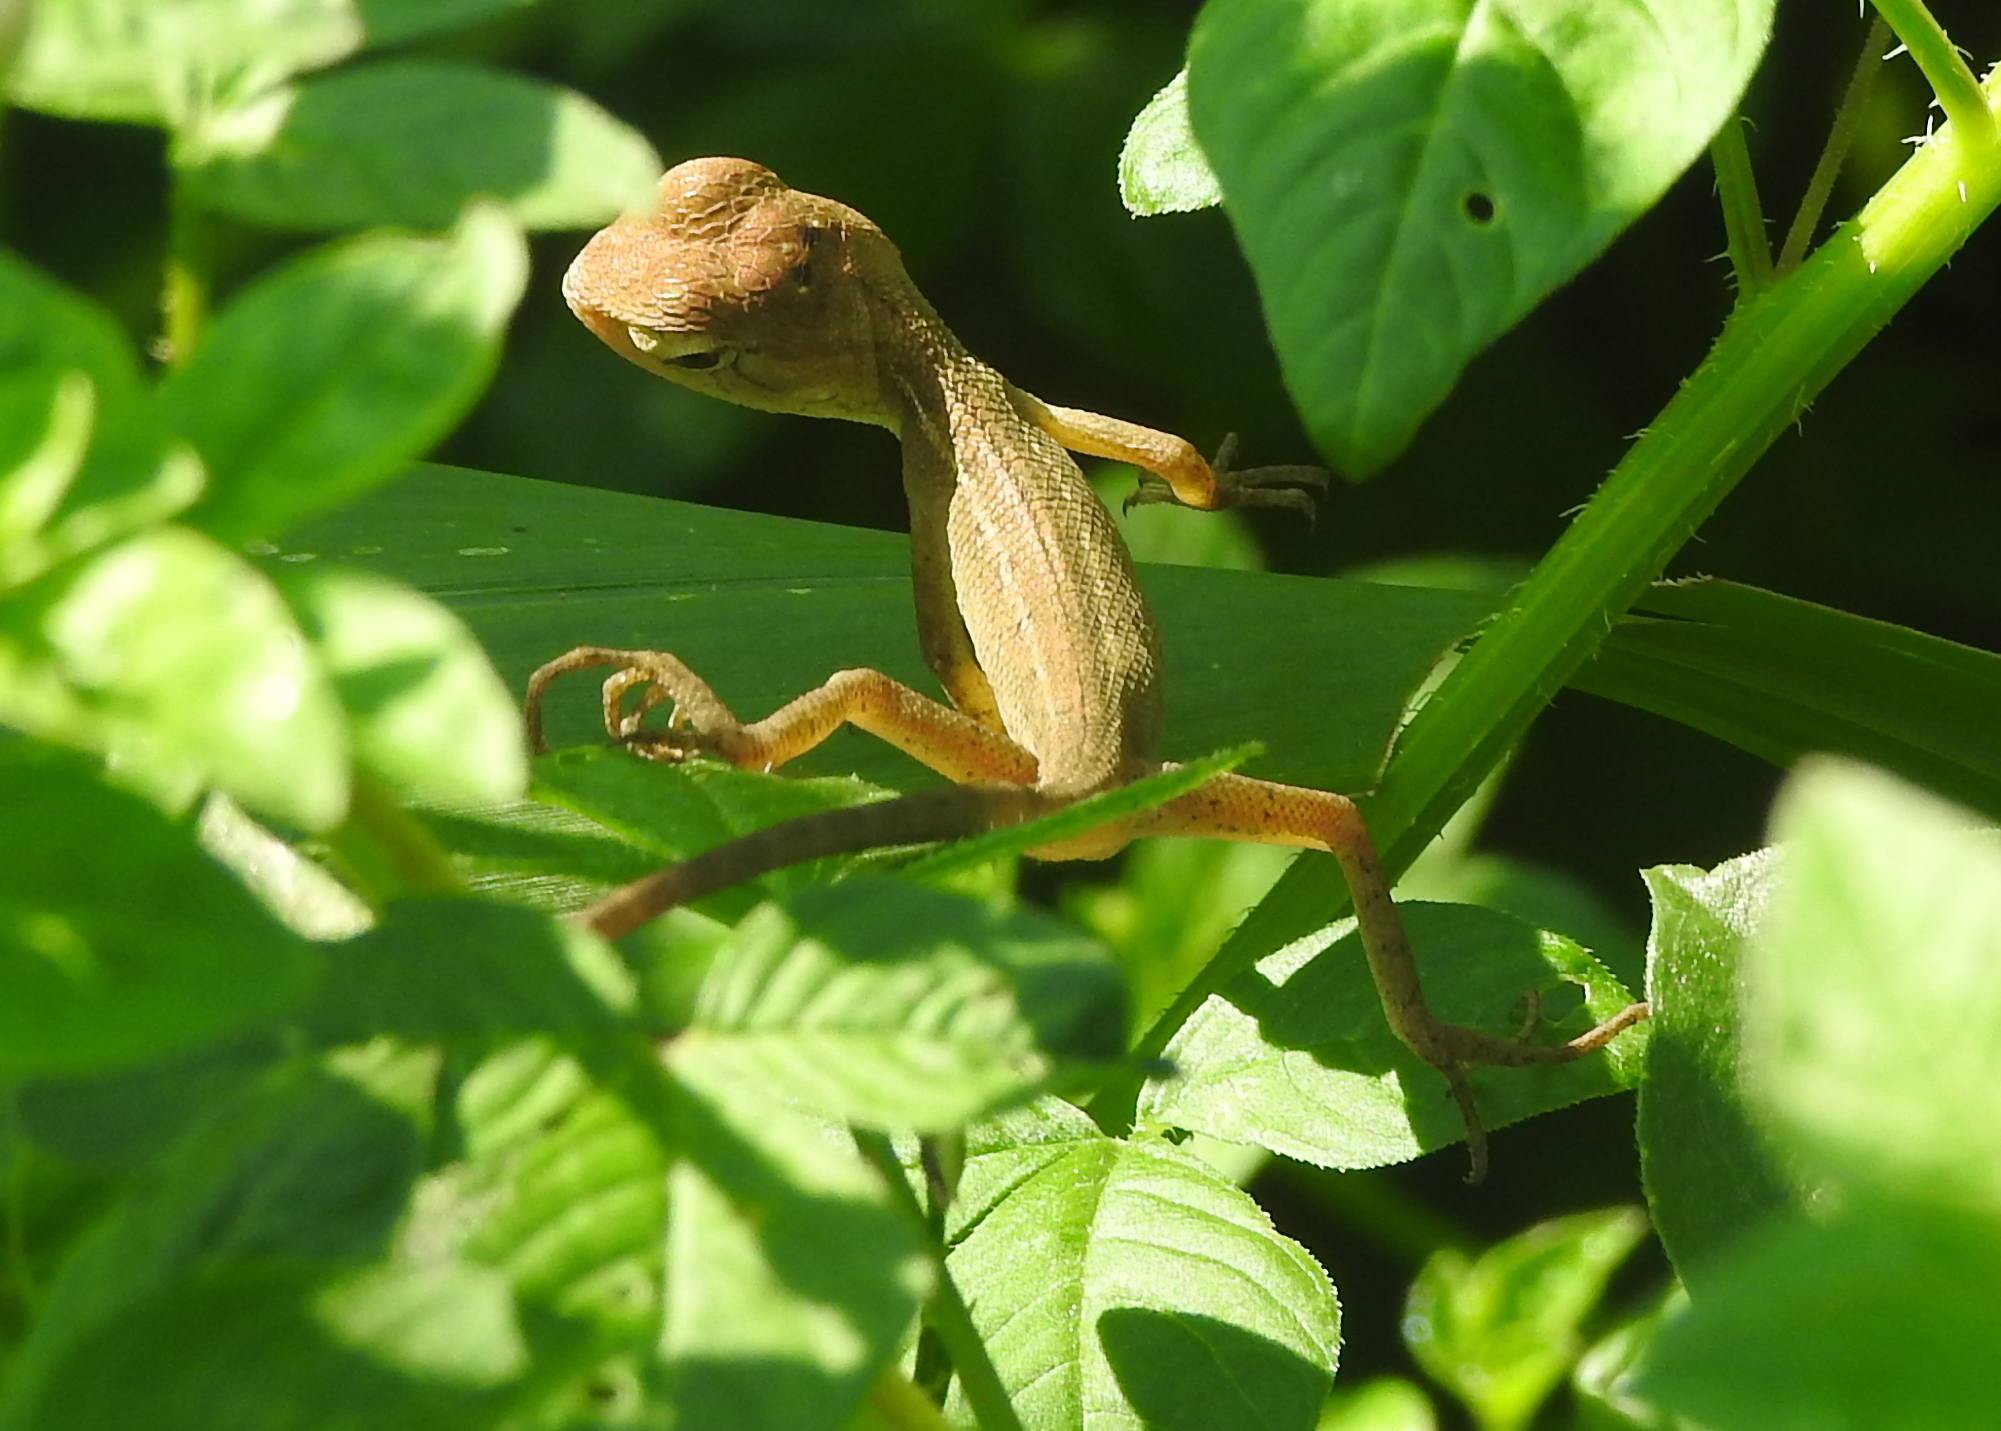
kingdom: Animalia
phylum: Chordata
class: Squamata
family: Agamidae
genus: Calotes
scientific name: Calotes versicolor
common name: Oriental garden lizard
